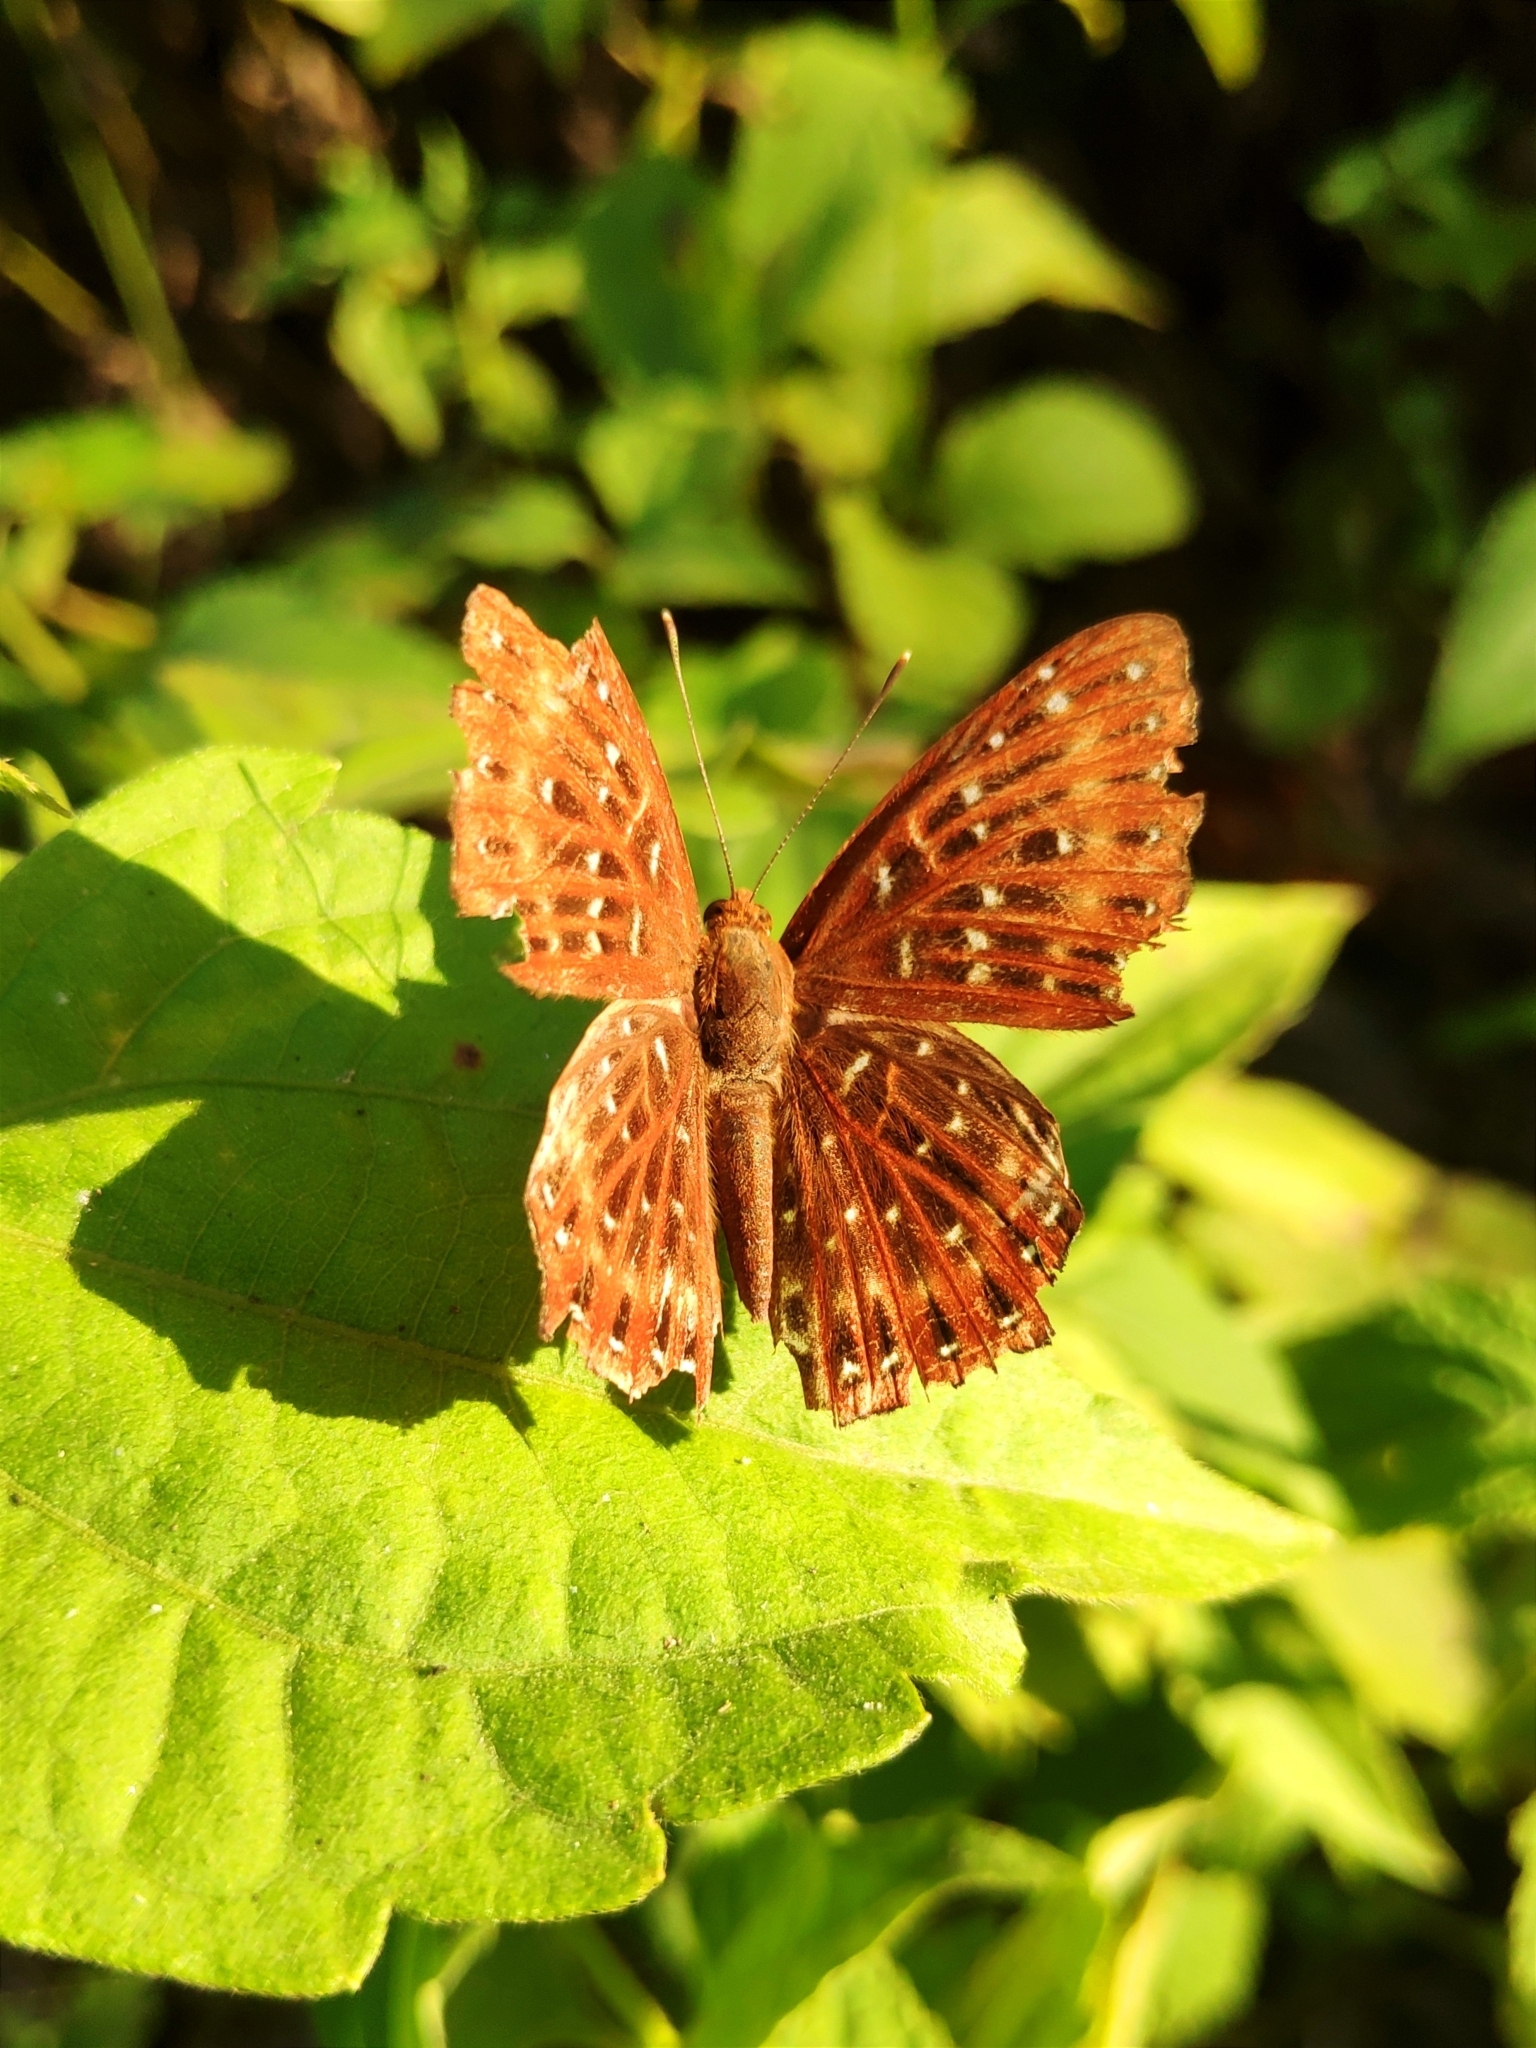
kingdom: Animalia
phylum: Arthropoda
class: Insecta
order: Lepidoptera
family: Riodinidae
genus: Zemeros
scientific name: Zemeros flegyas
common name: Punchinello
